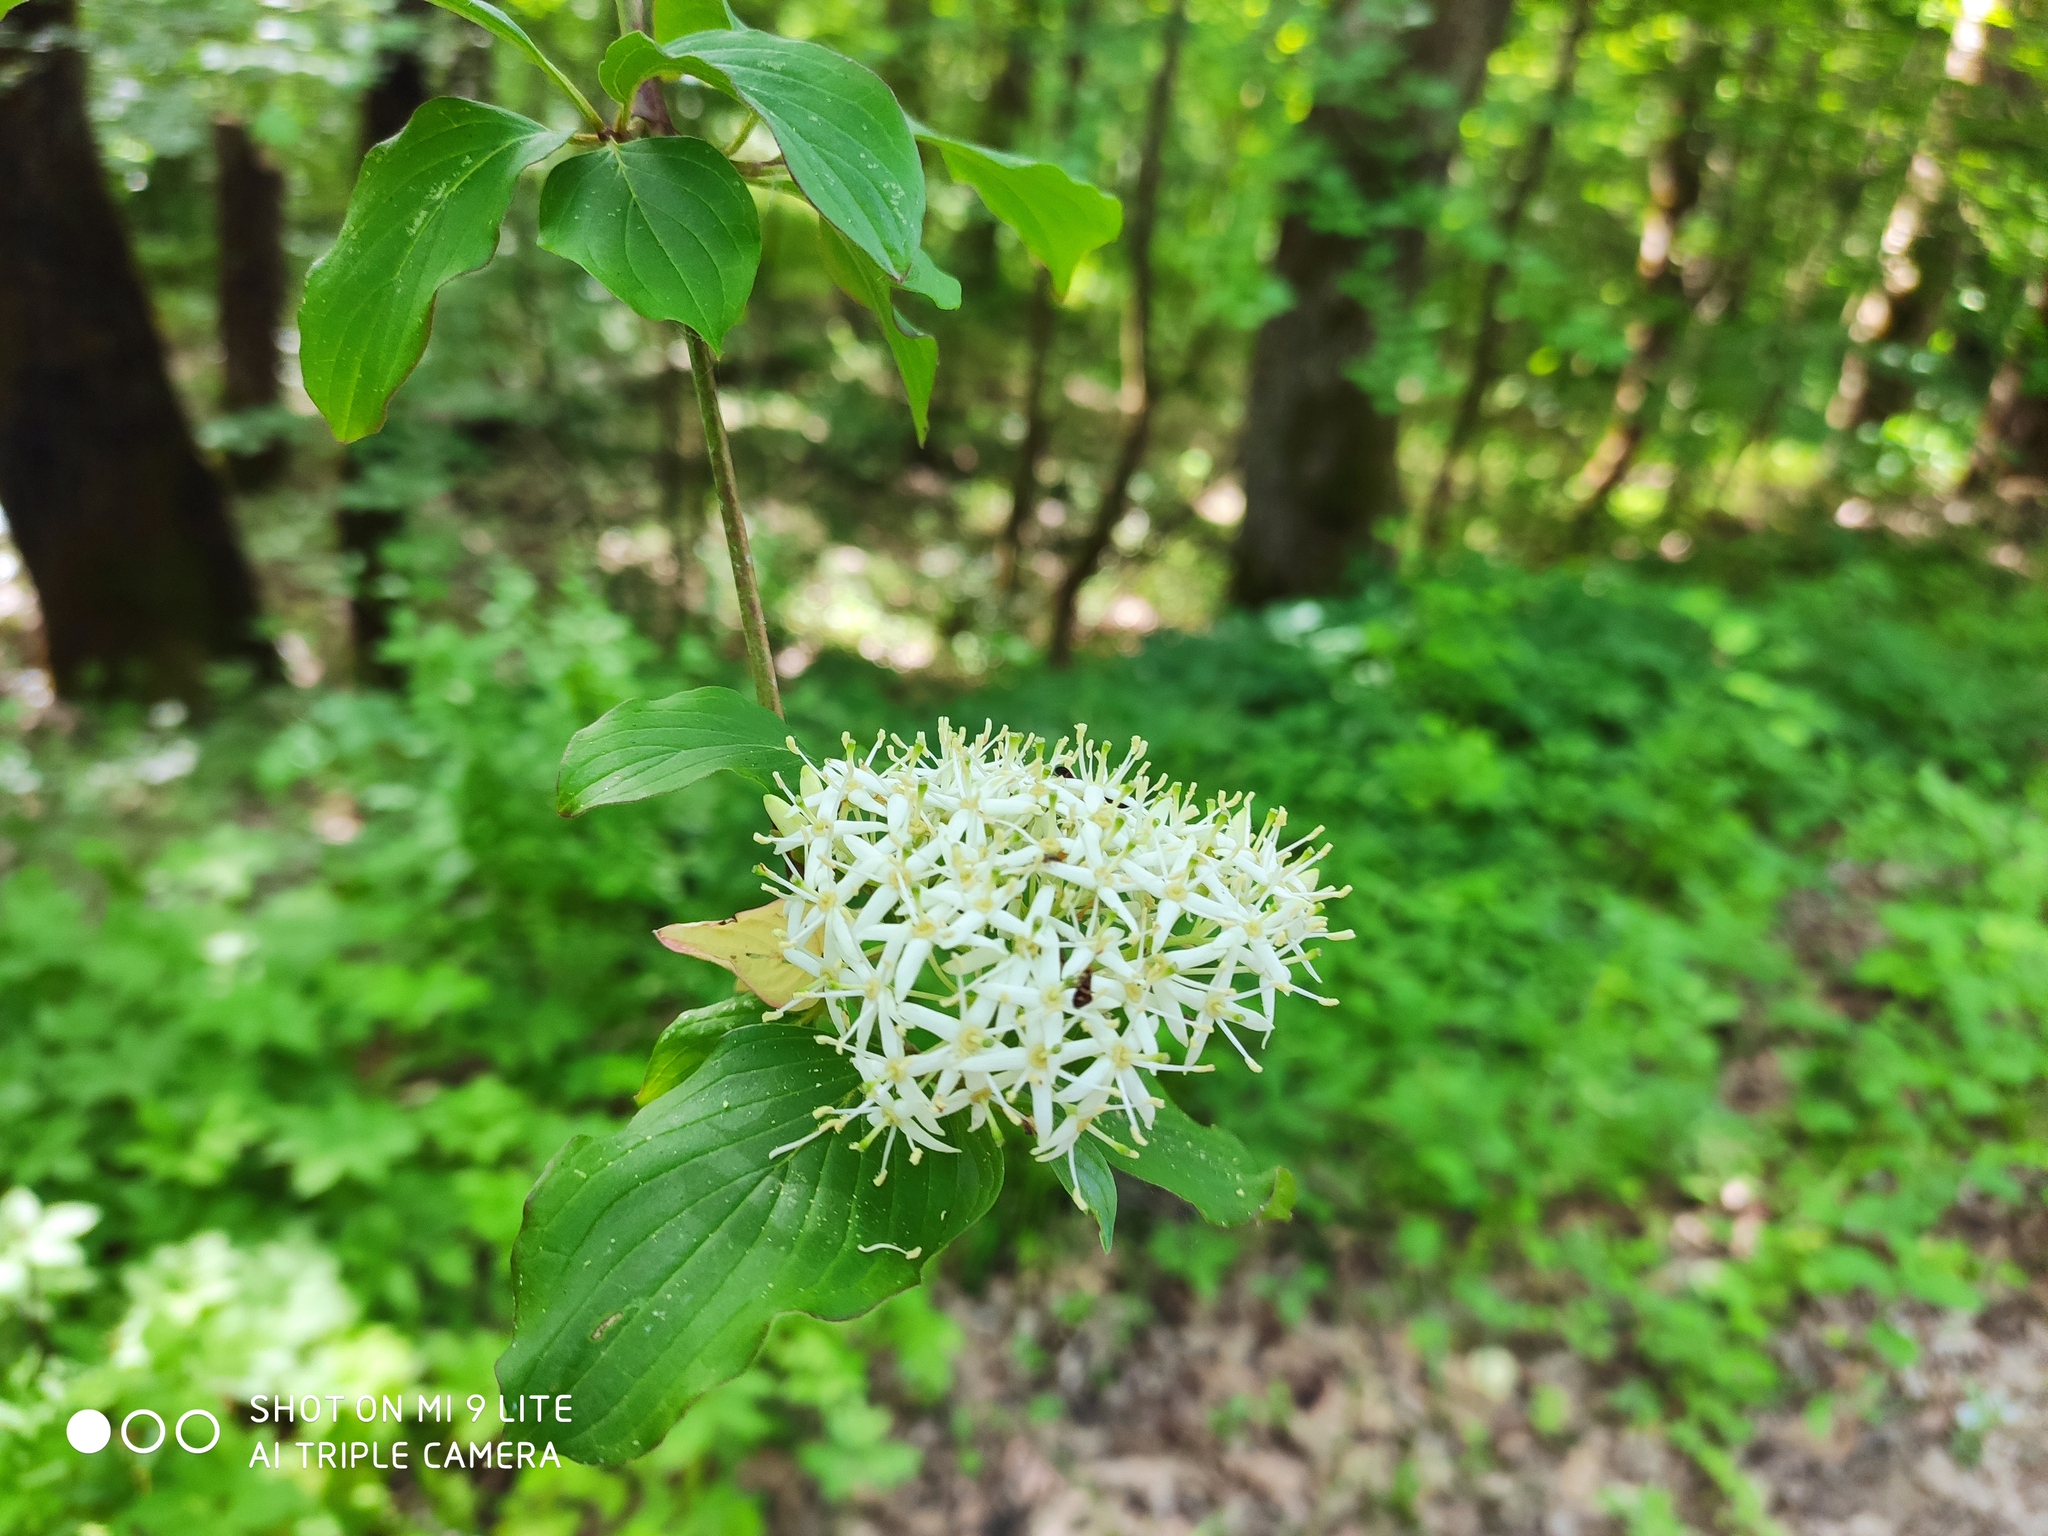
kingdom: Plantae
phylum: Tracheophyta
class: Magnoliopsida
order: Cornales
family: Cornaceae
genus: Cornus
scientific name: Cornus sanguinea
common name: Dogwood
